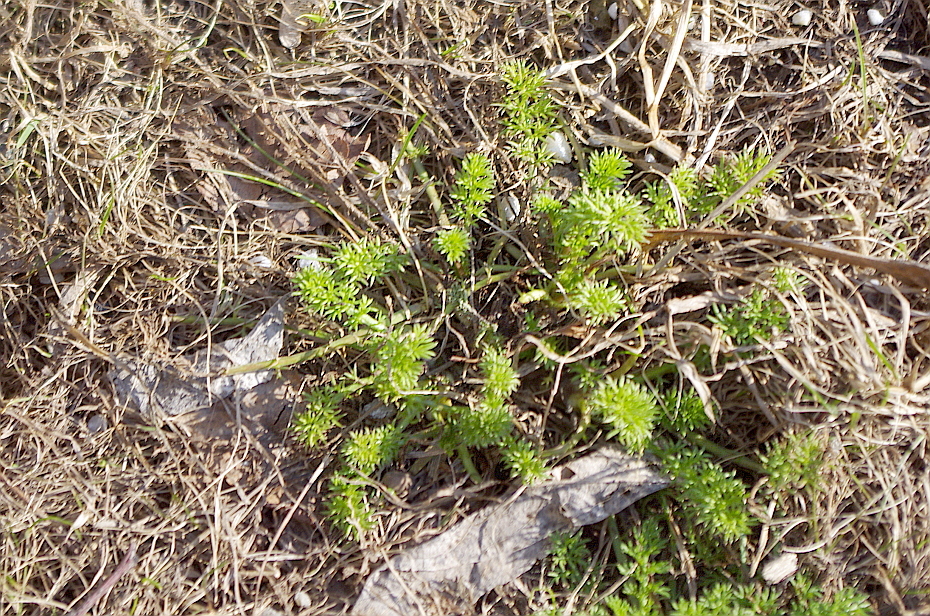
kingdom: Plantae
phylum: Tracheophyta
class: Magnoliopsida
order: Asterales
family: Asteraceae
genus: Tripleurospermum
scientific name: Tripleurospermum inodorum
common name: Scentless mayweed
